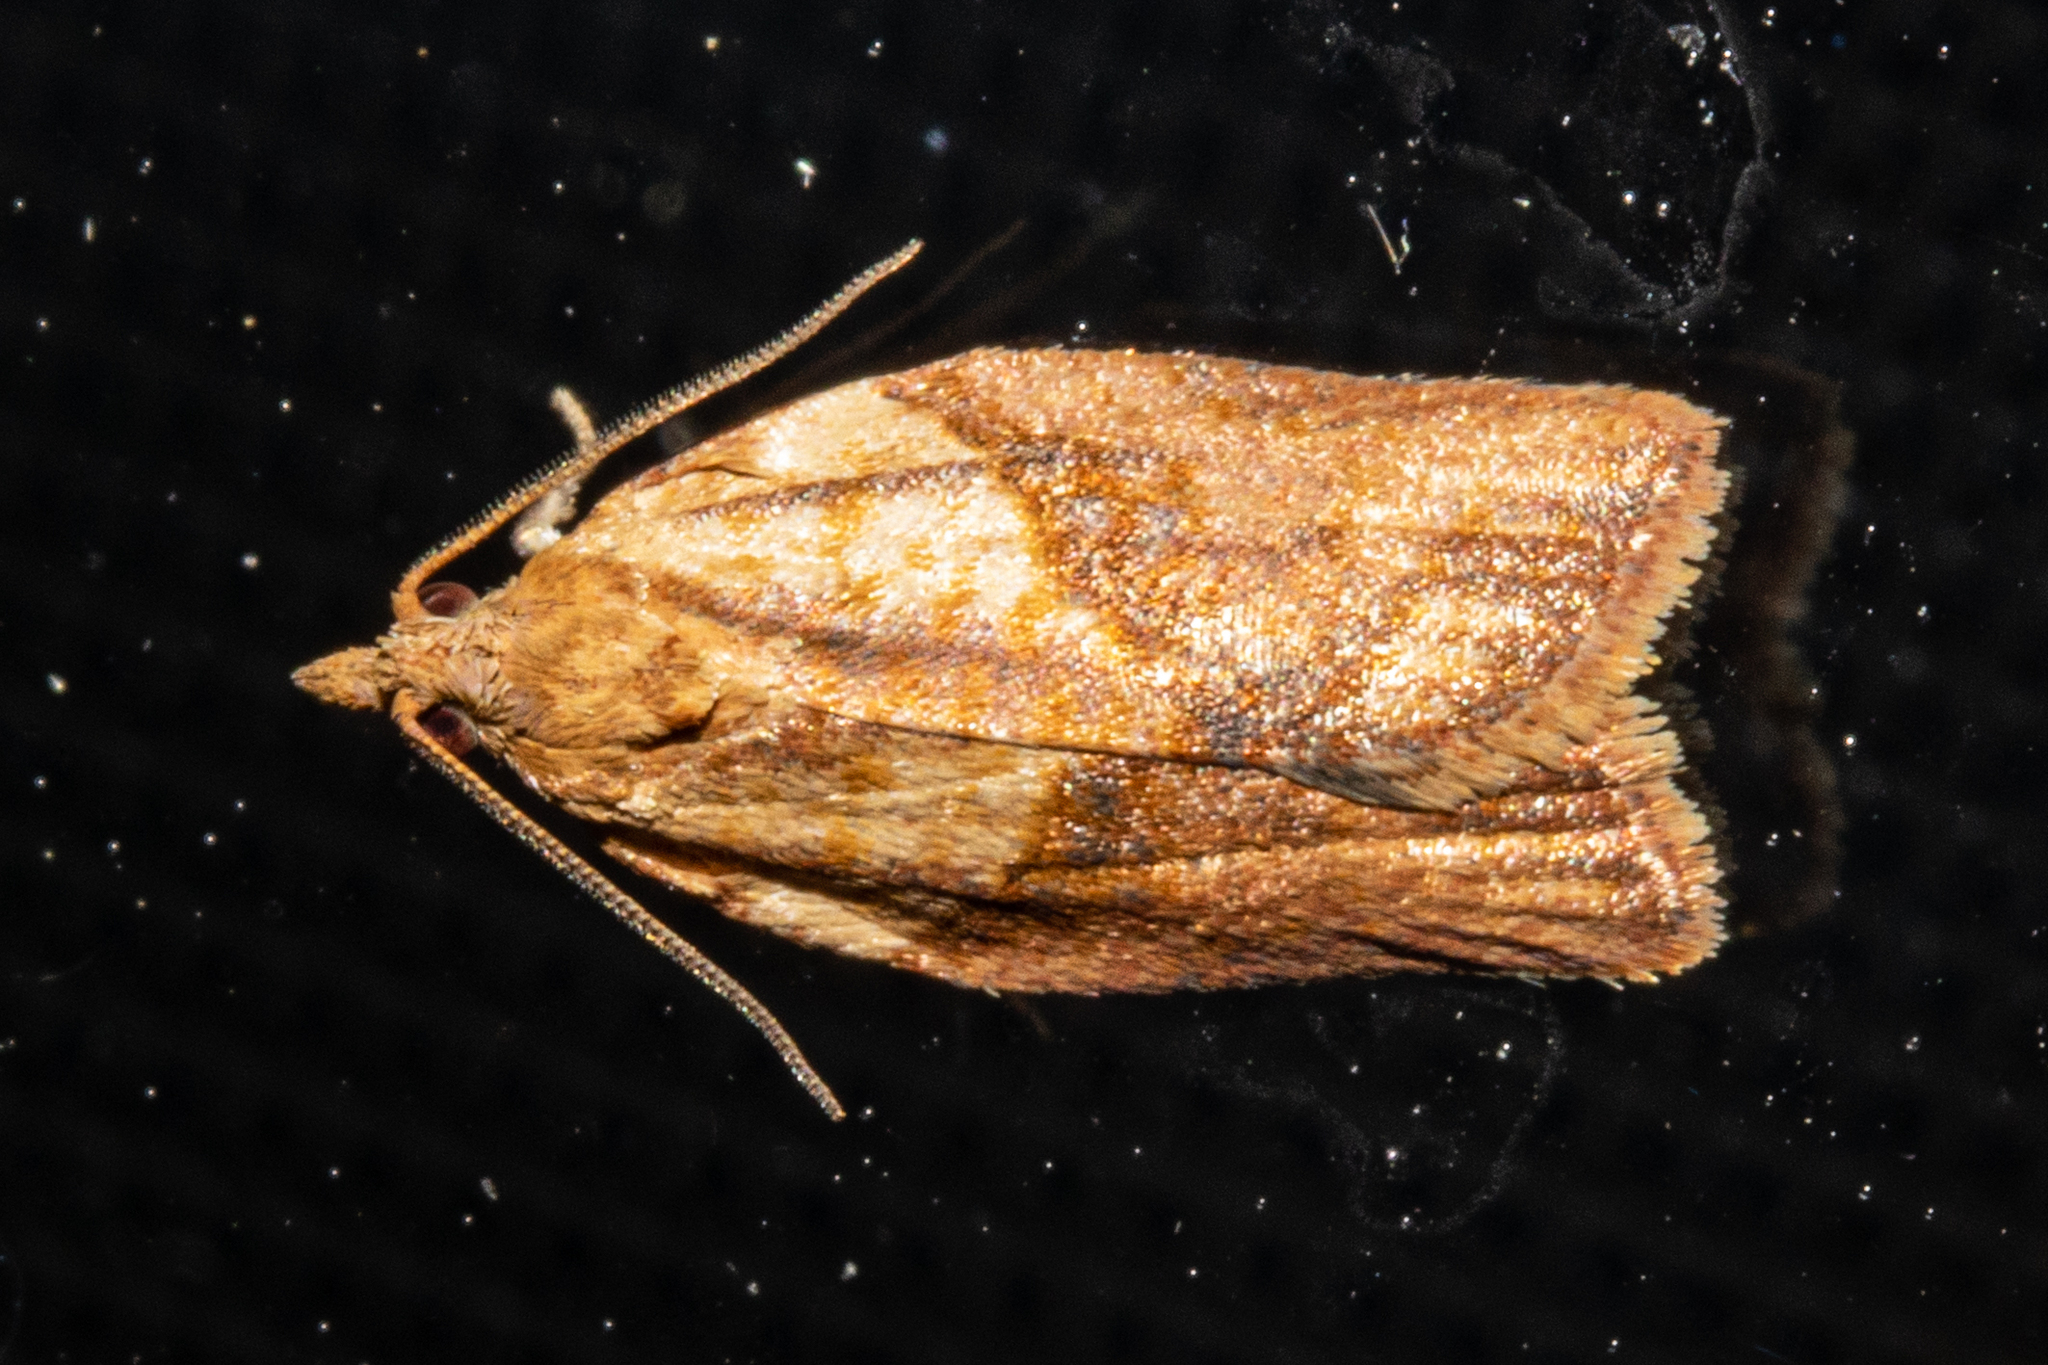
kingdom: Animalia
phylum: Arthropoda
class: Insecta
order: Lepidoptera
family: Tortricidae
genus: Epiphyas
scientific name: Epiphyas postvittana
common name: Light brown apple moth
